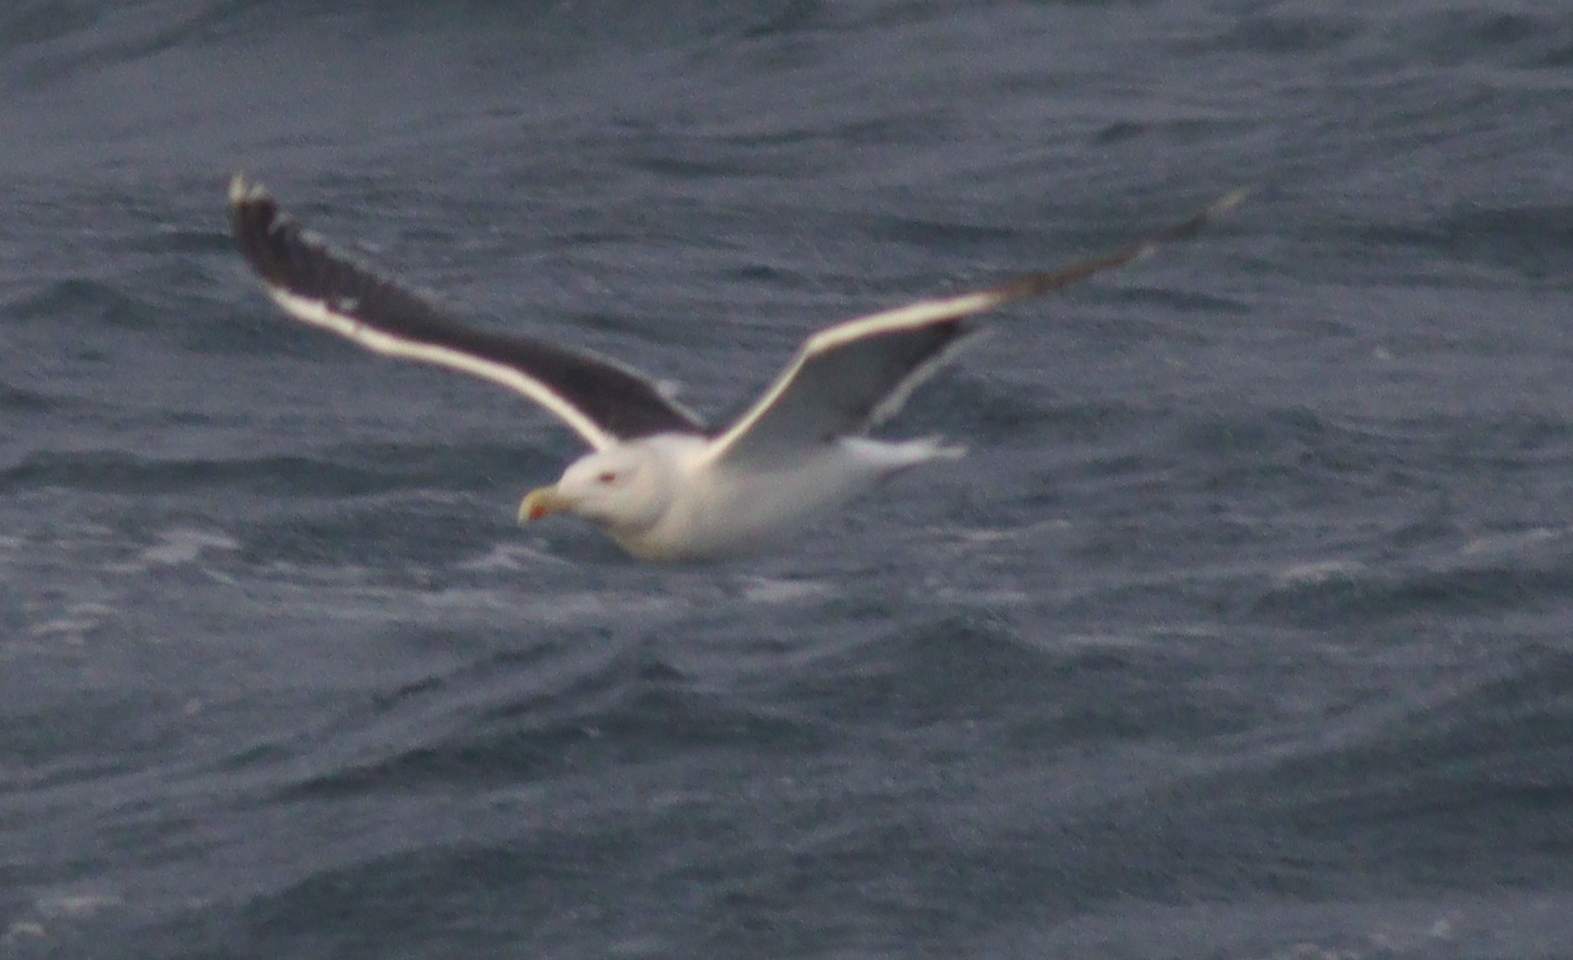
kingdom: Animalia
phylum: Chordata
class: Aves
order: Charadriiformes
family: Laridae
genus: Larus
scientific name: Larus marinus
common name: Great black-backed gull
